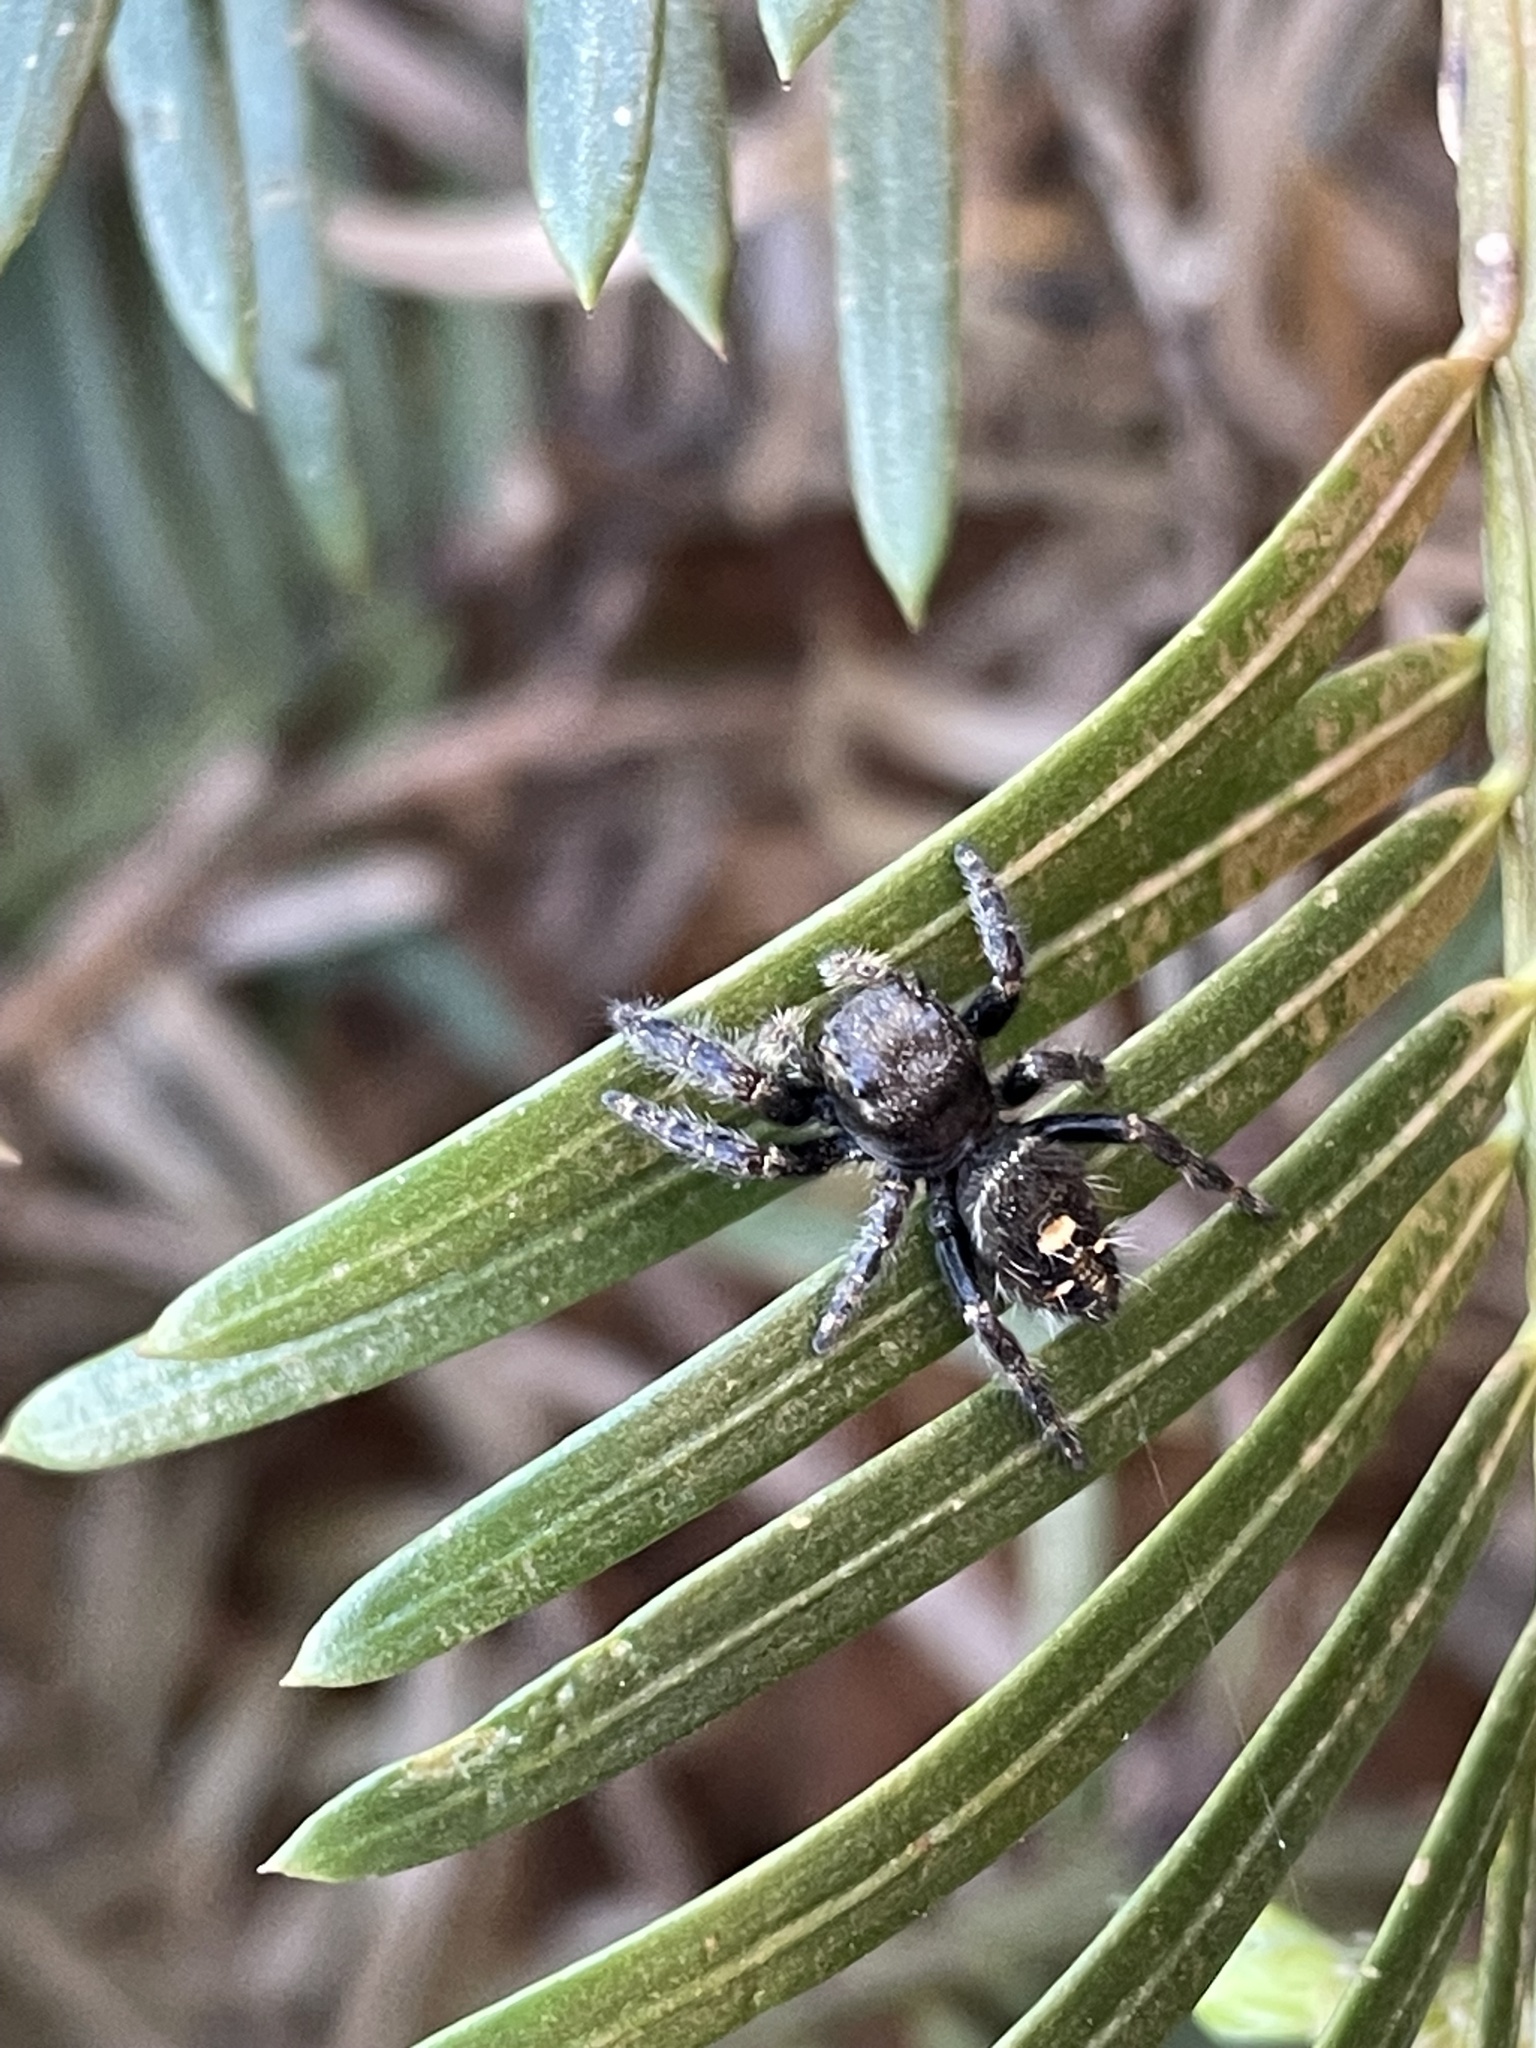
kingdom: Animalia
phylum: Arthropoda
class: Arachnida
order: Araneae
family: Salticidae
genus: Phidippus
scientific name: Phidippus audax
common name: Bold jumper
